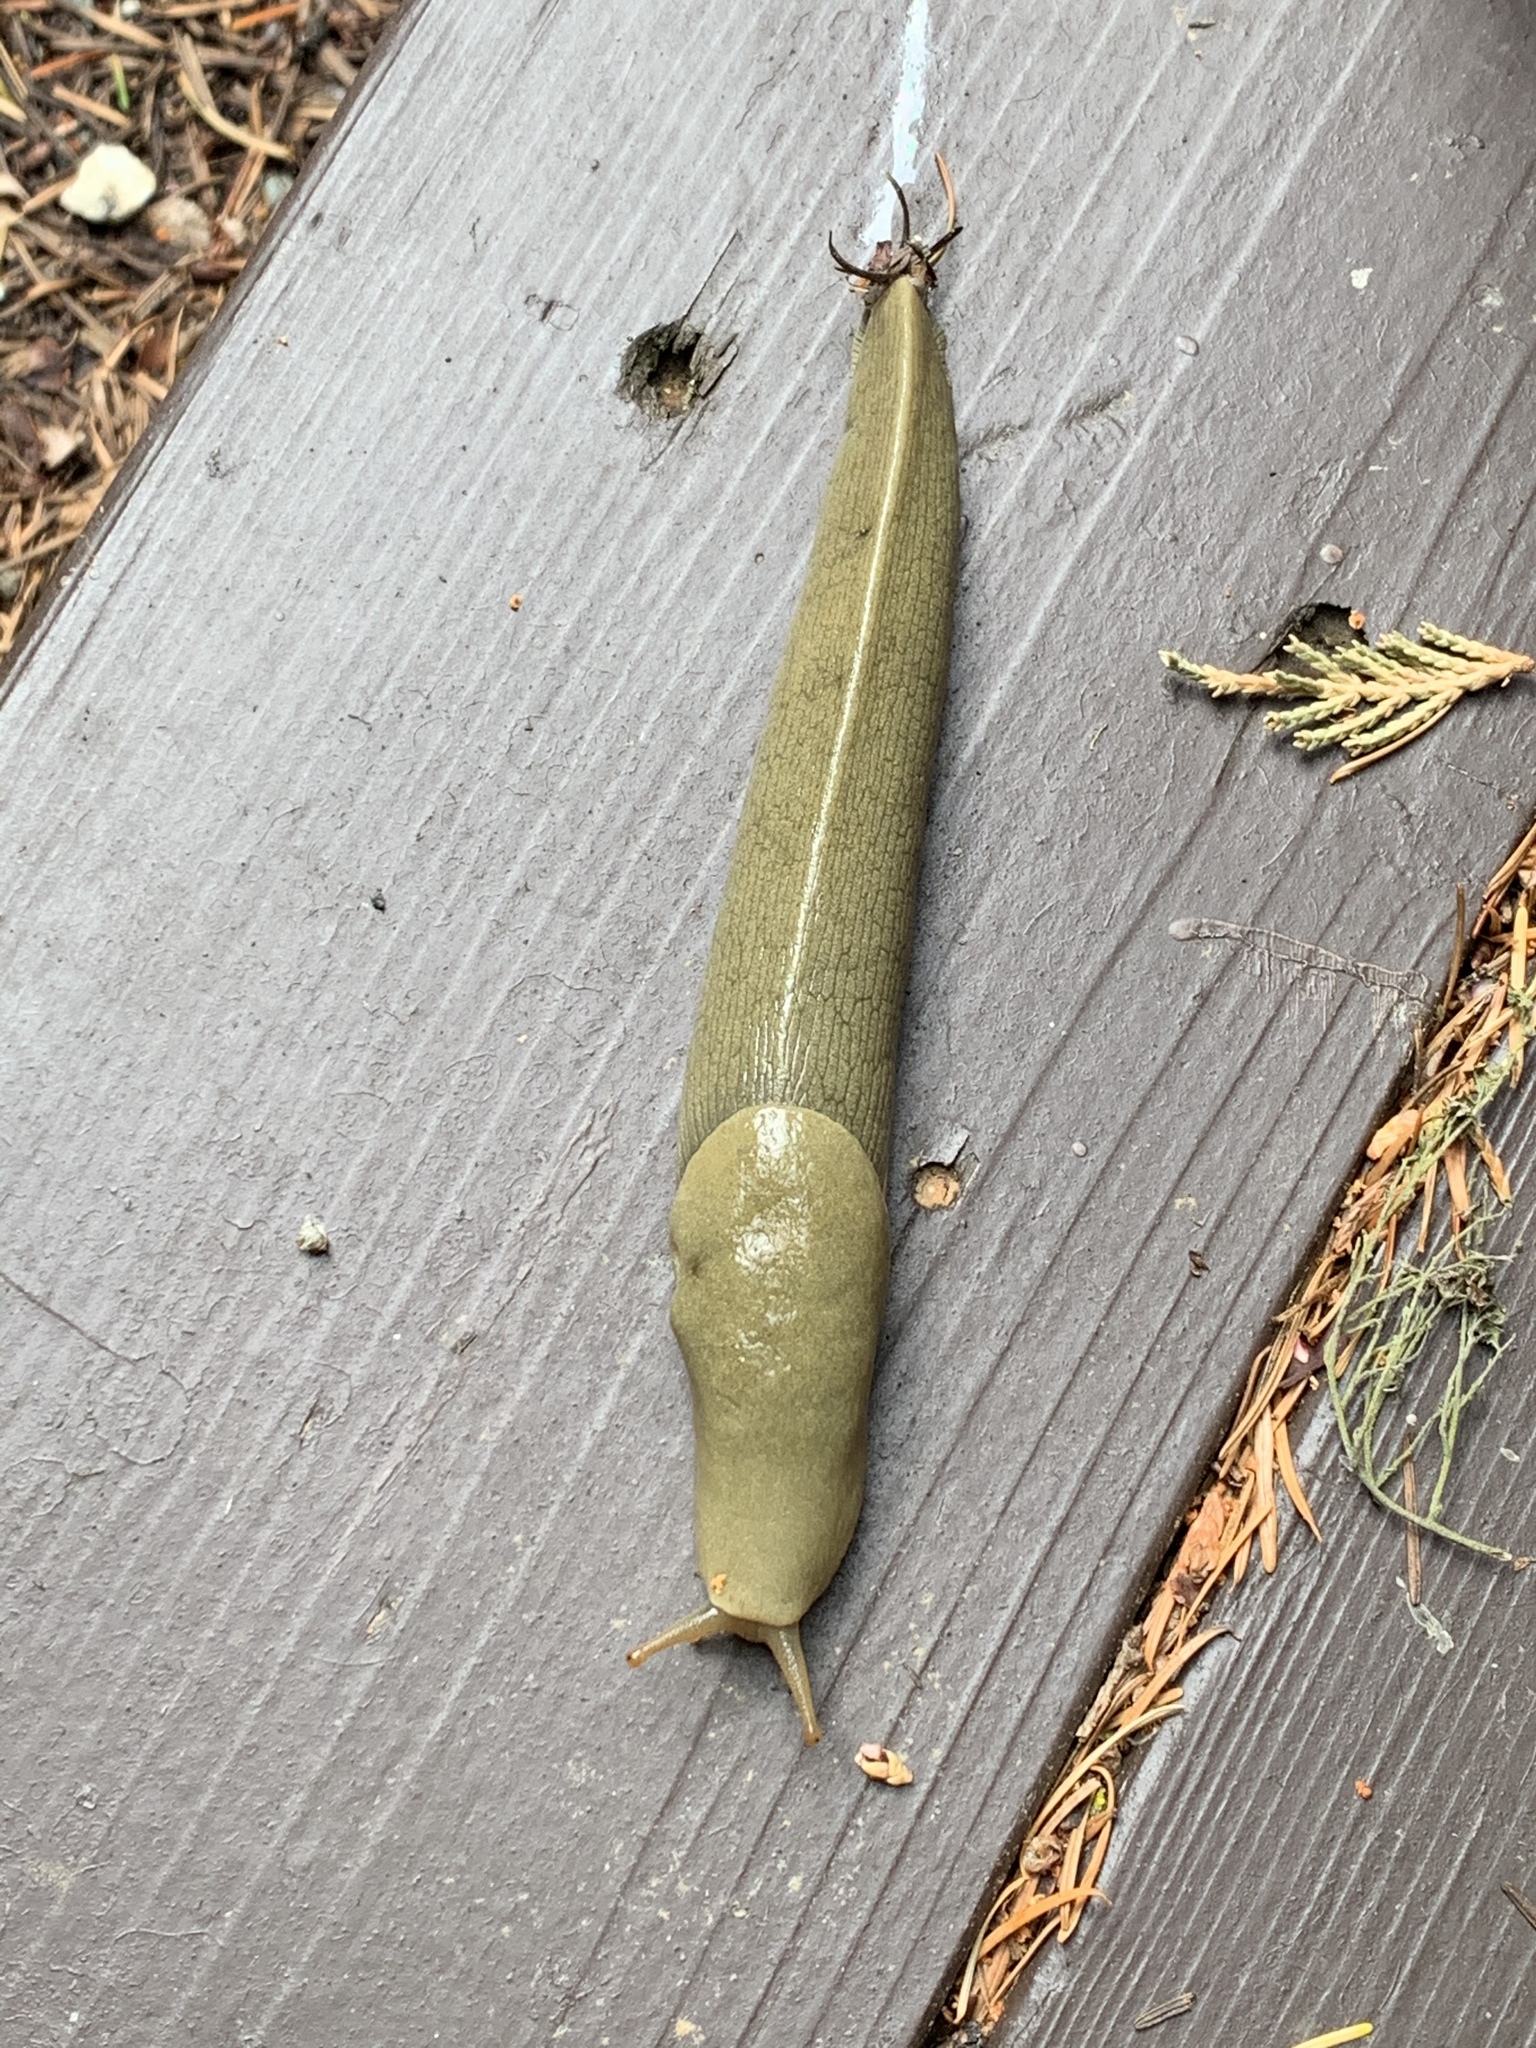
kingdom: Animalia
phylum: Mollusca
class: Gastropoda
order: Stylommatophora
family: Ariolimacidae
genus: Ariolimax
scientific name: Ariolimax columbianus
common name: Pacific banana slug
